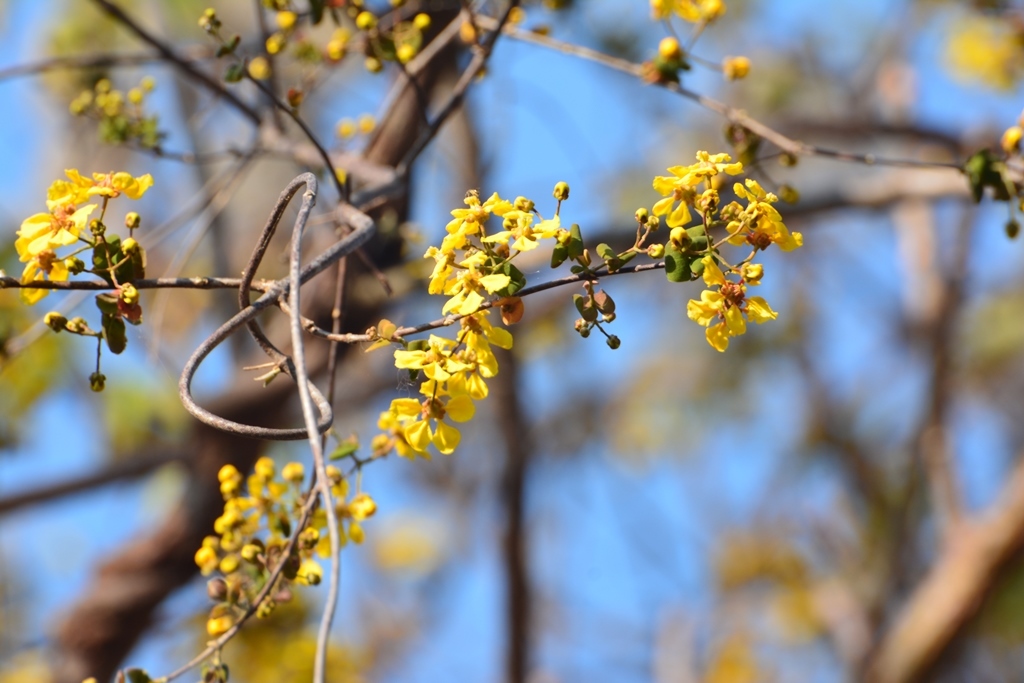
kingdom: Plantae
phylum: Tracheophyta
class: Magnoliopsida
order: Malpighiales
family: Malpighiaceae
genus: Gaudichaudia
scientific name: Gaudichaudia hexandra
